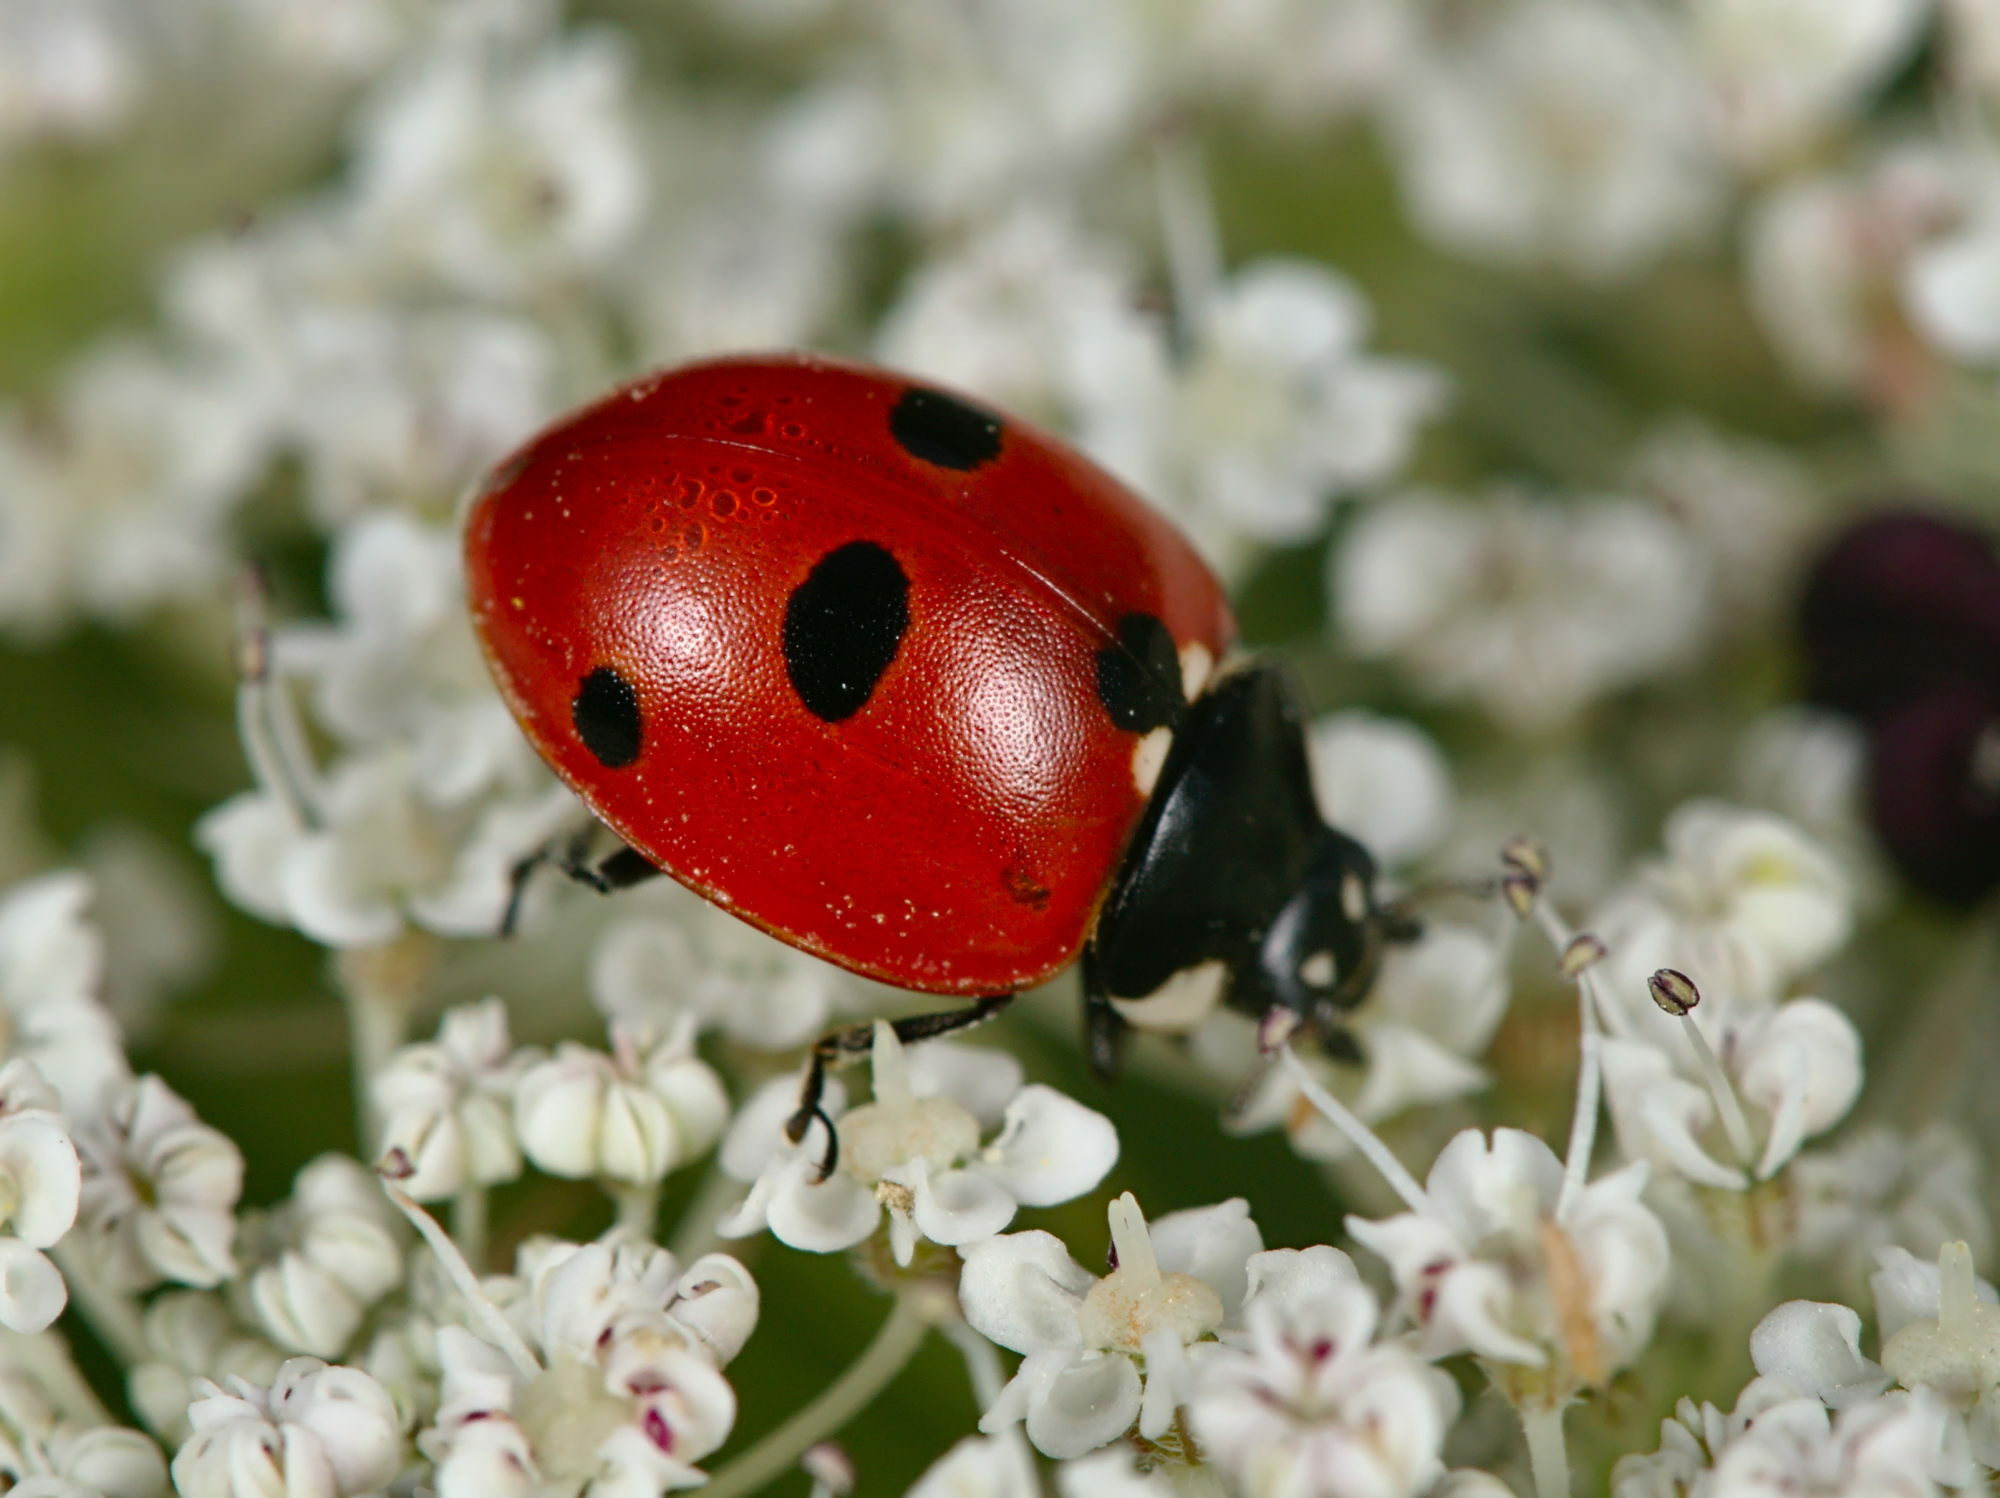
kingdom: Animalia
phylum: Arthropoda
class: Insecta
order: Coleoptera
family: Coccinellidae
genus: Coccinella
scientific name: Coccinella quinquepunctata
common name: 5-spot ladybird
